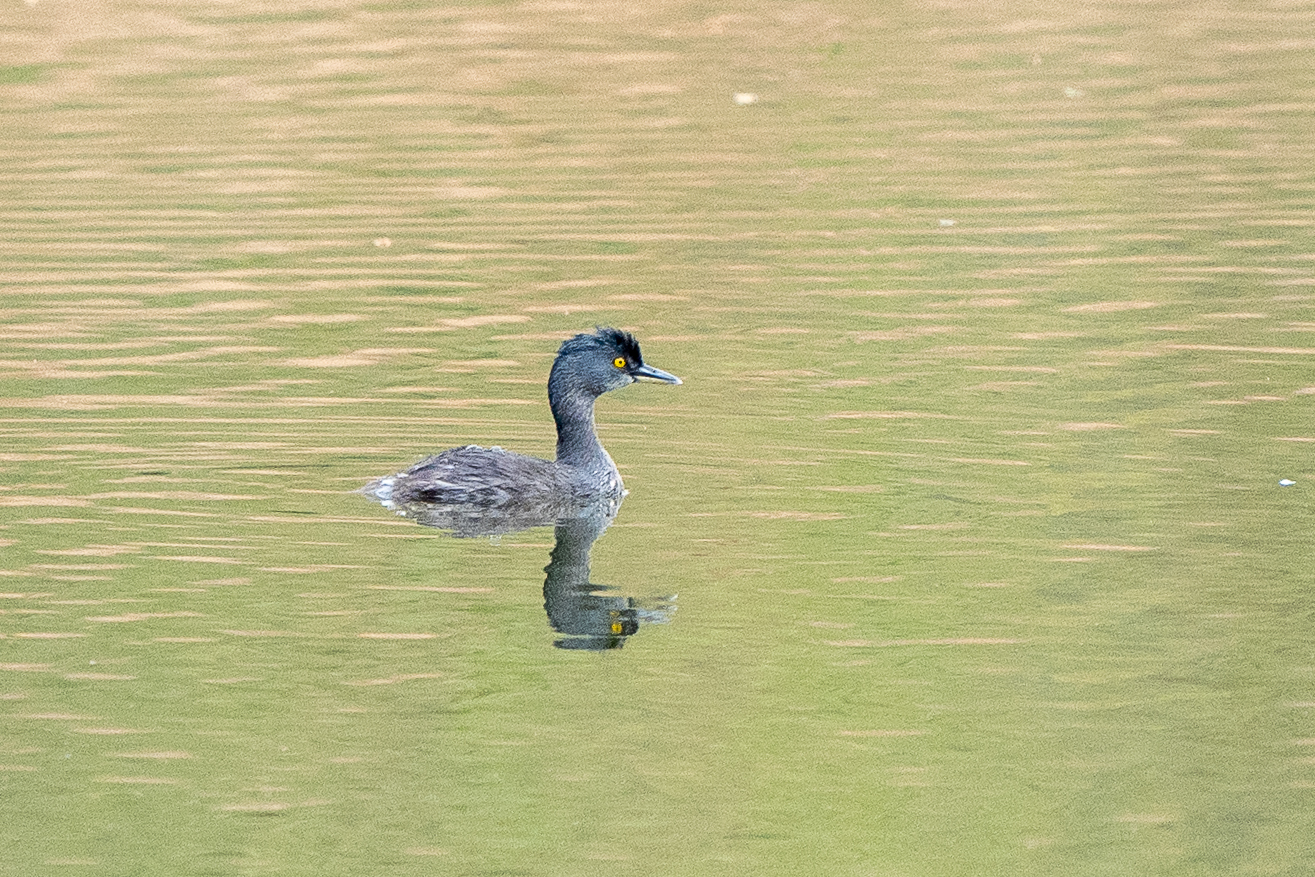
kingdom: Animalia
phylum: Chordata
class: Aves
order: Podicipediformes
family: Podicipedidae
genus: Tachybaptus
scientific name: Tachybaptus dominicus
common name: Least grebe
